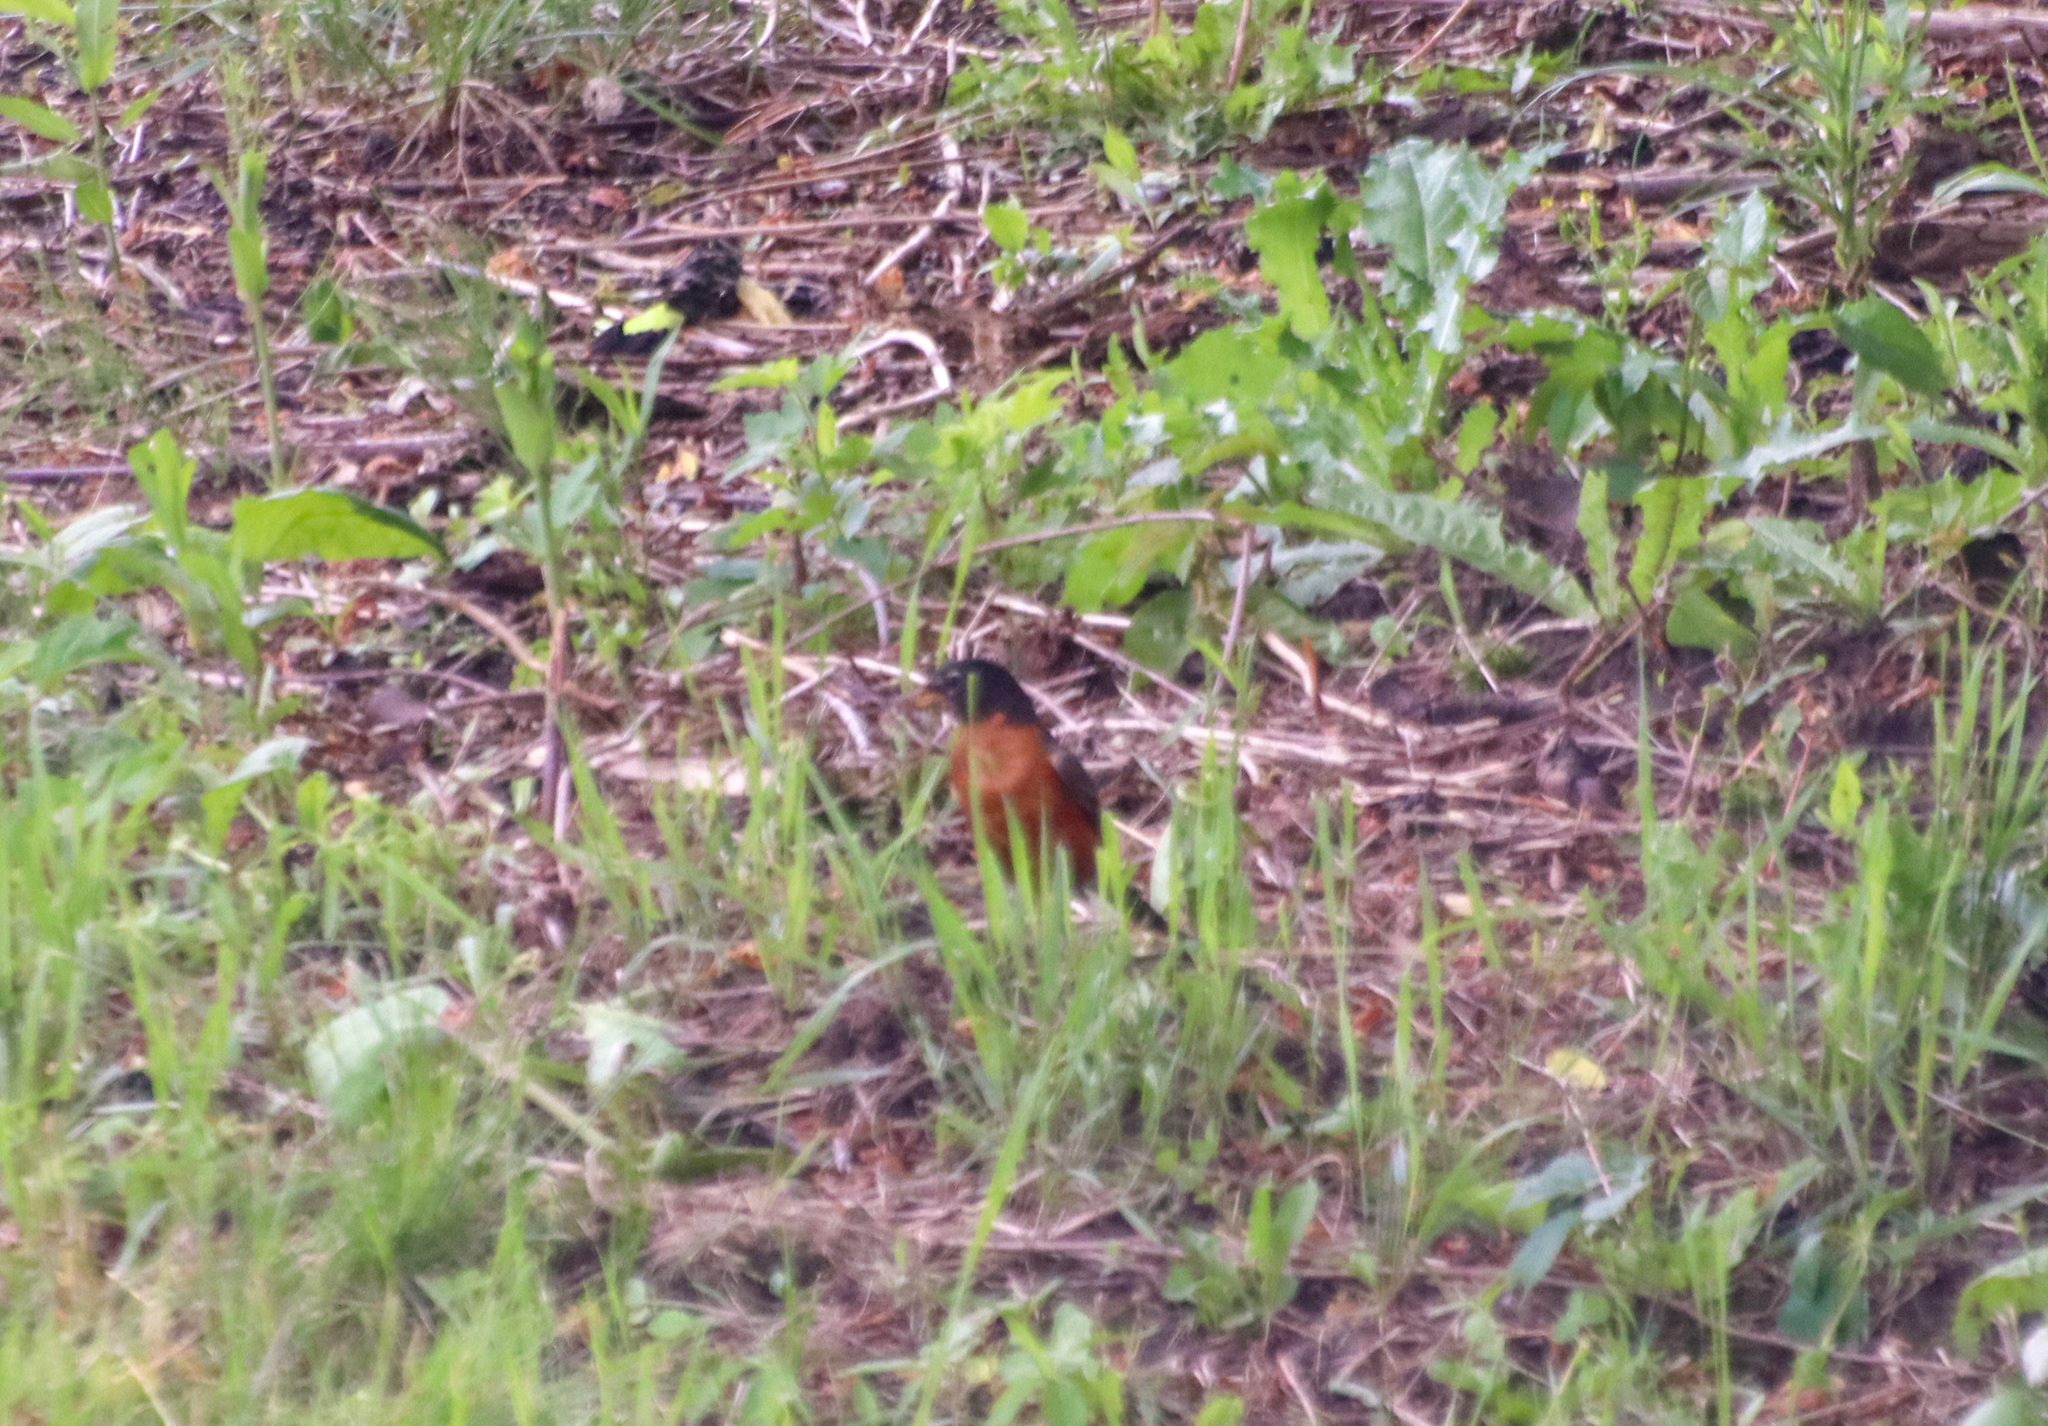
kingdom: Animalia
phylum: Chordata
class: Aves
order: Passeriformes
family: Turdidae
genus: Turdus
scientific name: Turdus migratorius
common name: American robin
